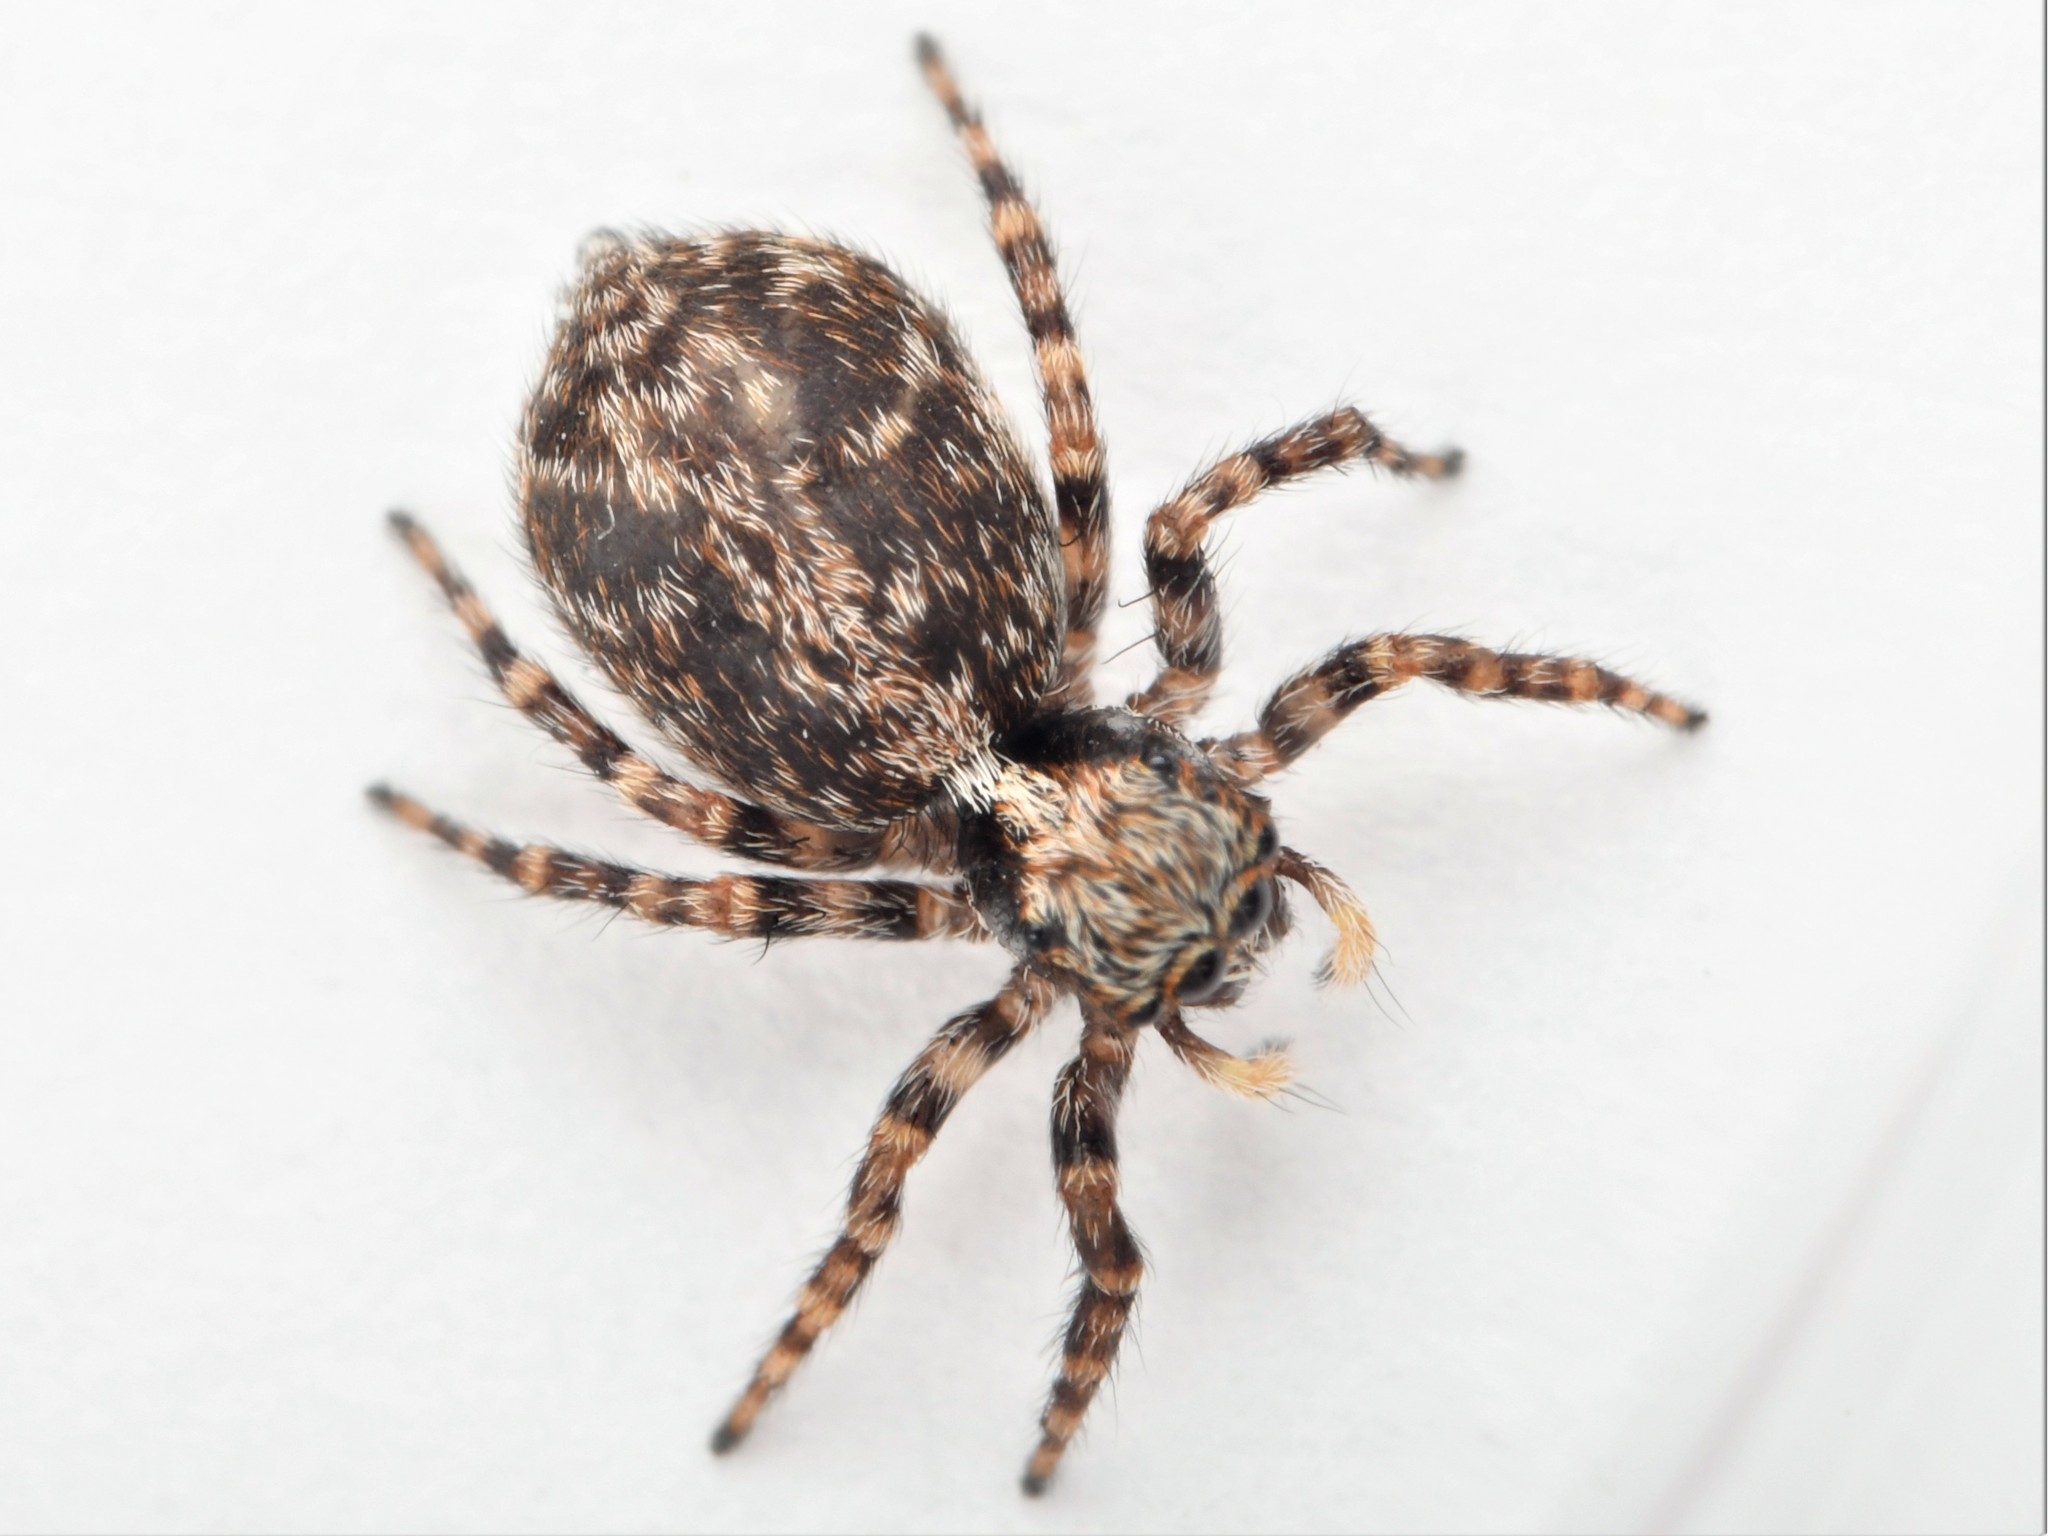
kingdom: Animalia
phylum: Arthropoda
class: Arachnida
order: Araneae
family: Salticidae
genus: Pseudeuophrys
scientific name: Pseudeuophrys lanigera
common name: Jumping spider
